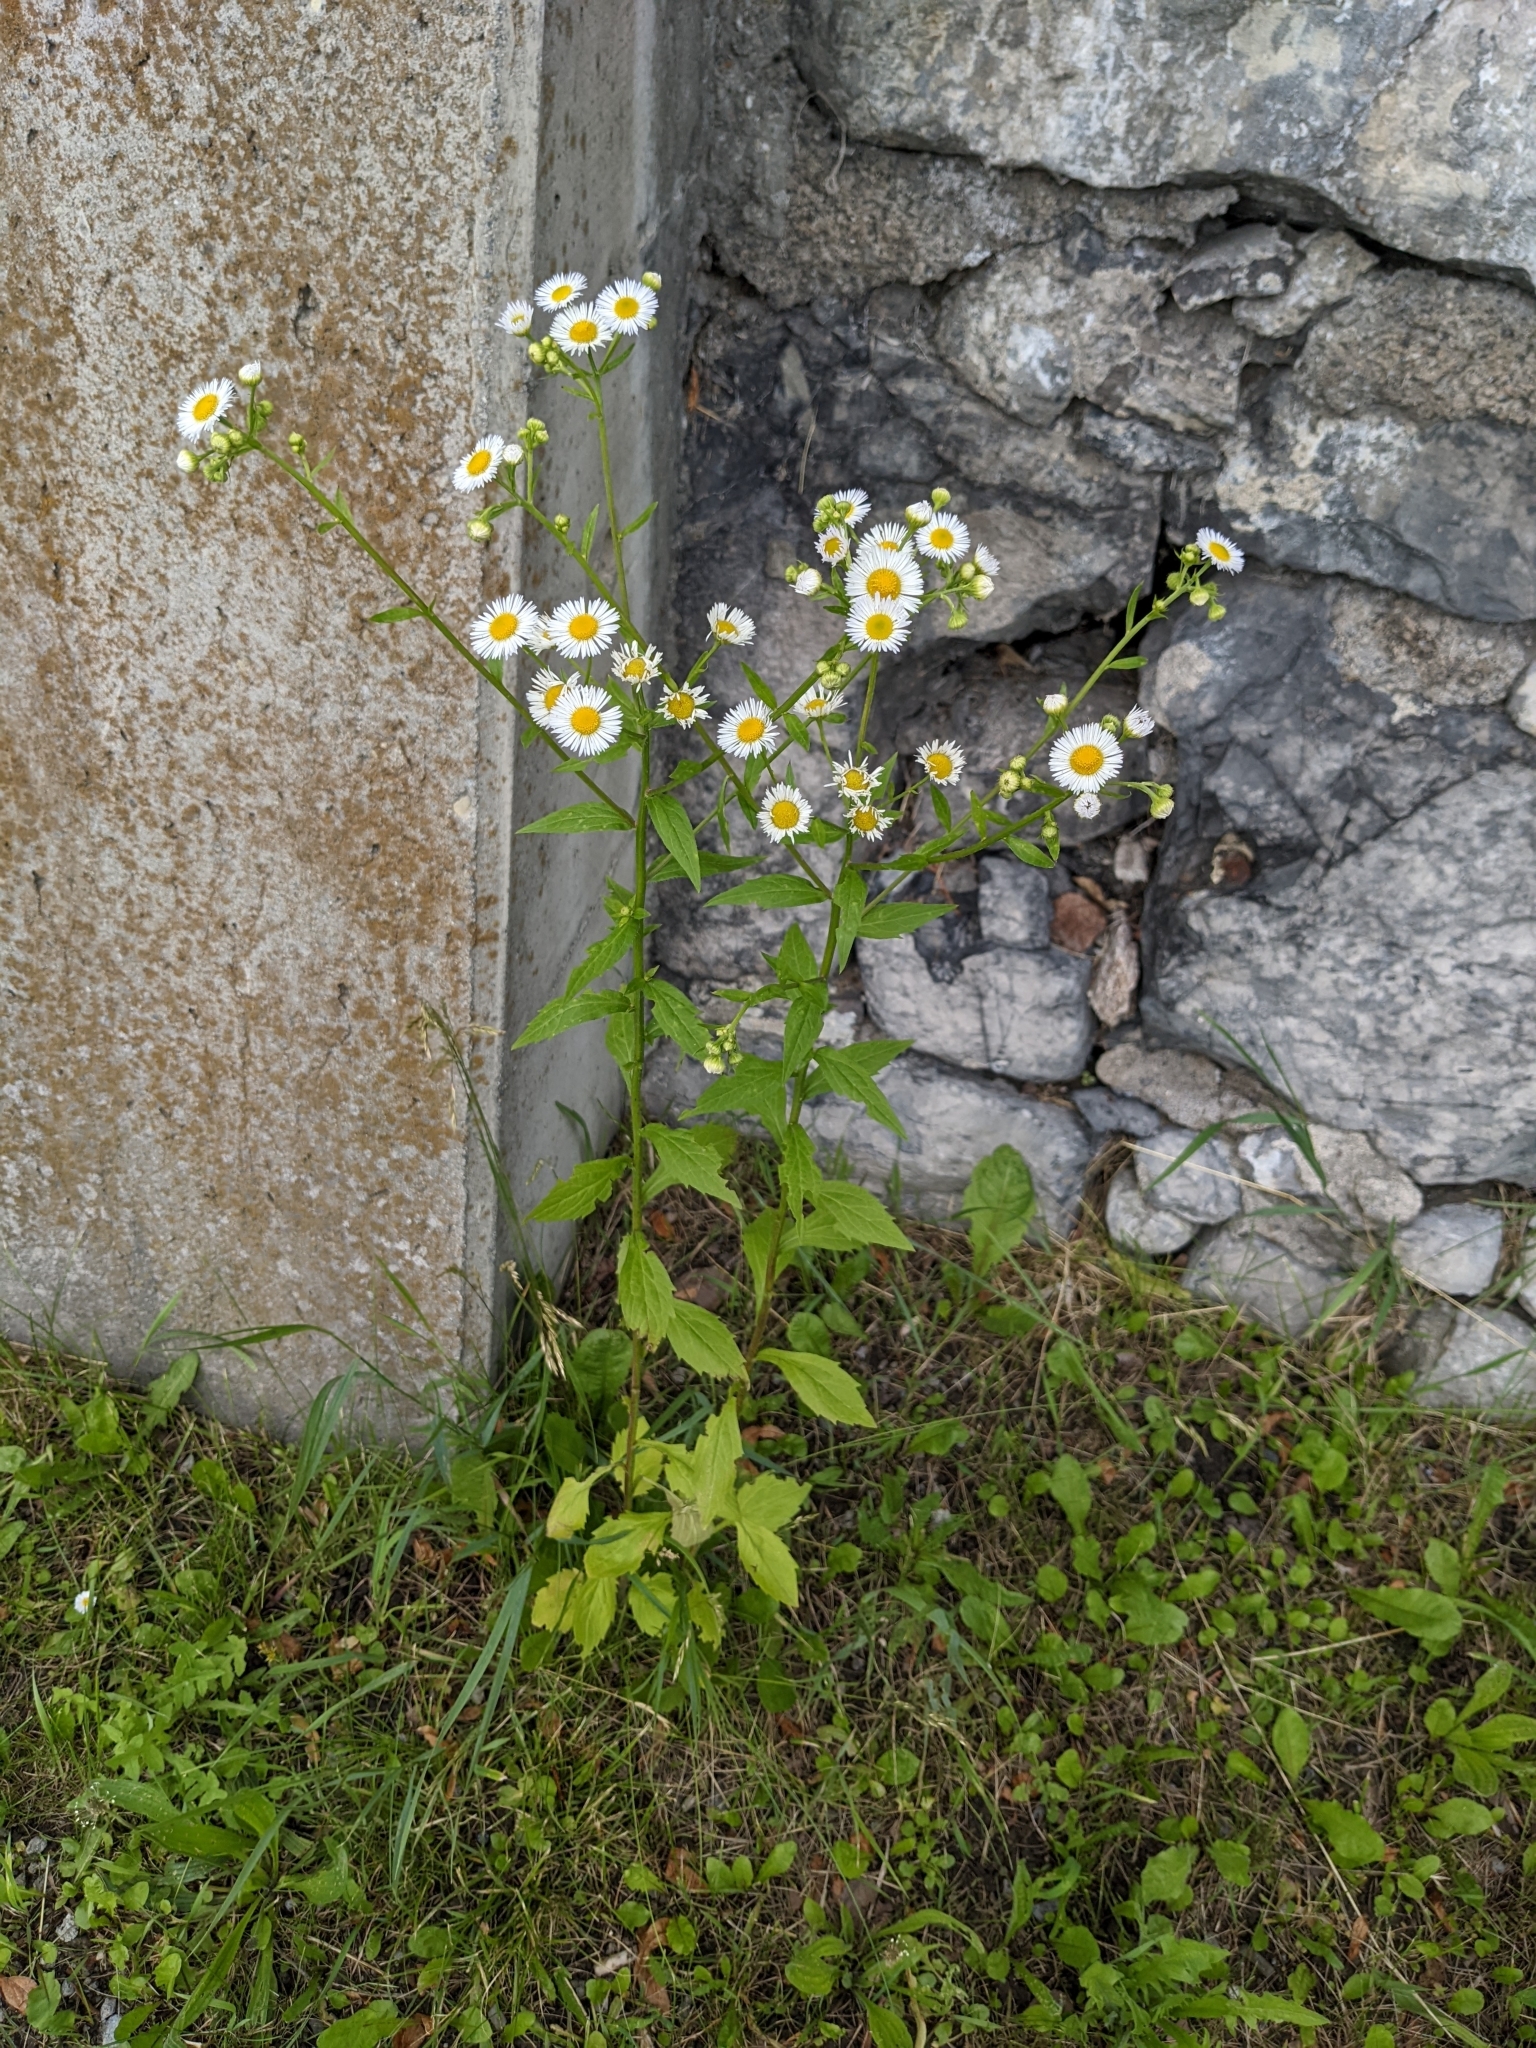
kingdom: Plantae
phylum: Tracheophyta
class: Magnoliopsida
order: Asterales
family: Asteraceae
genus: Erigeron
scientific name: Erigeron annuus
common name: Tall fleabane
